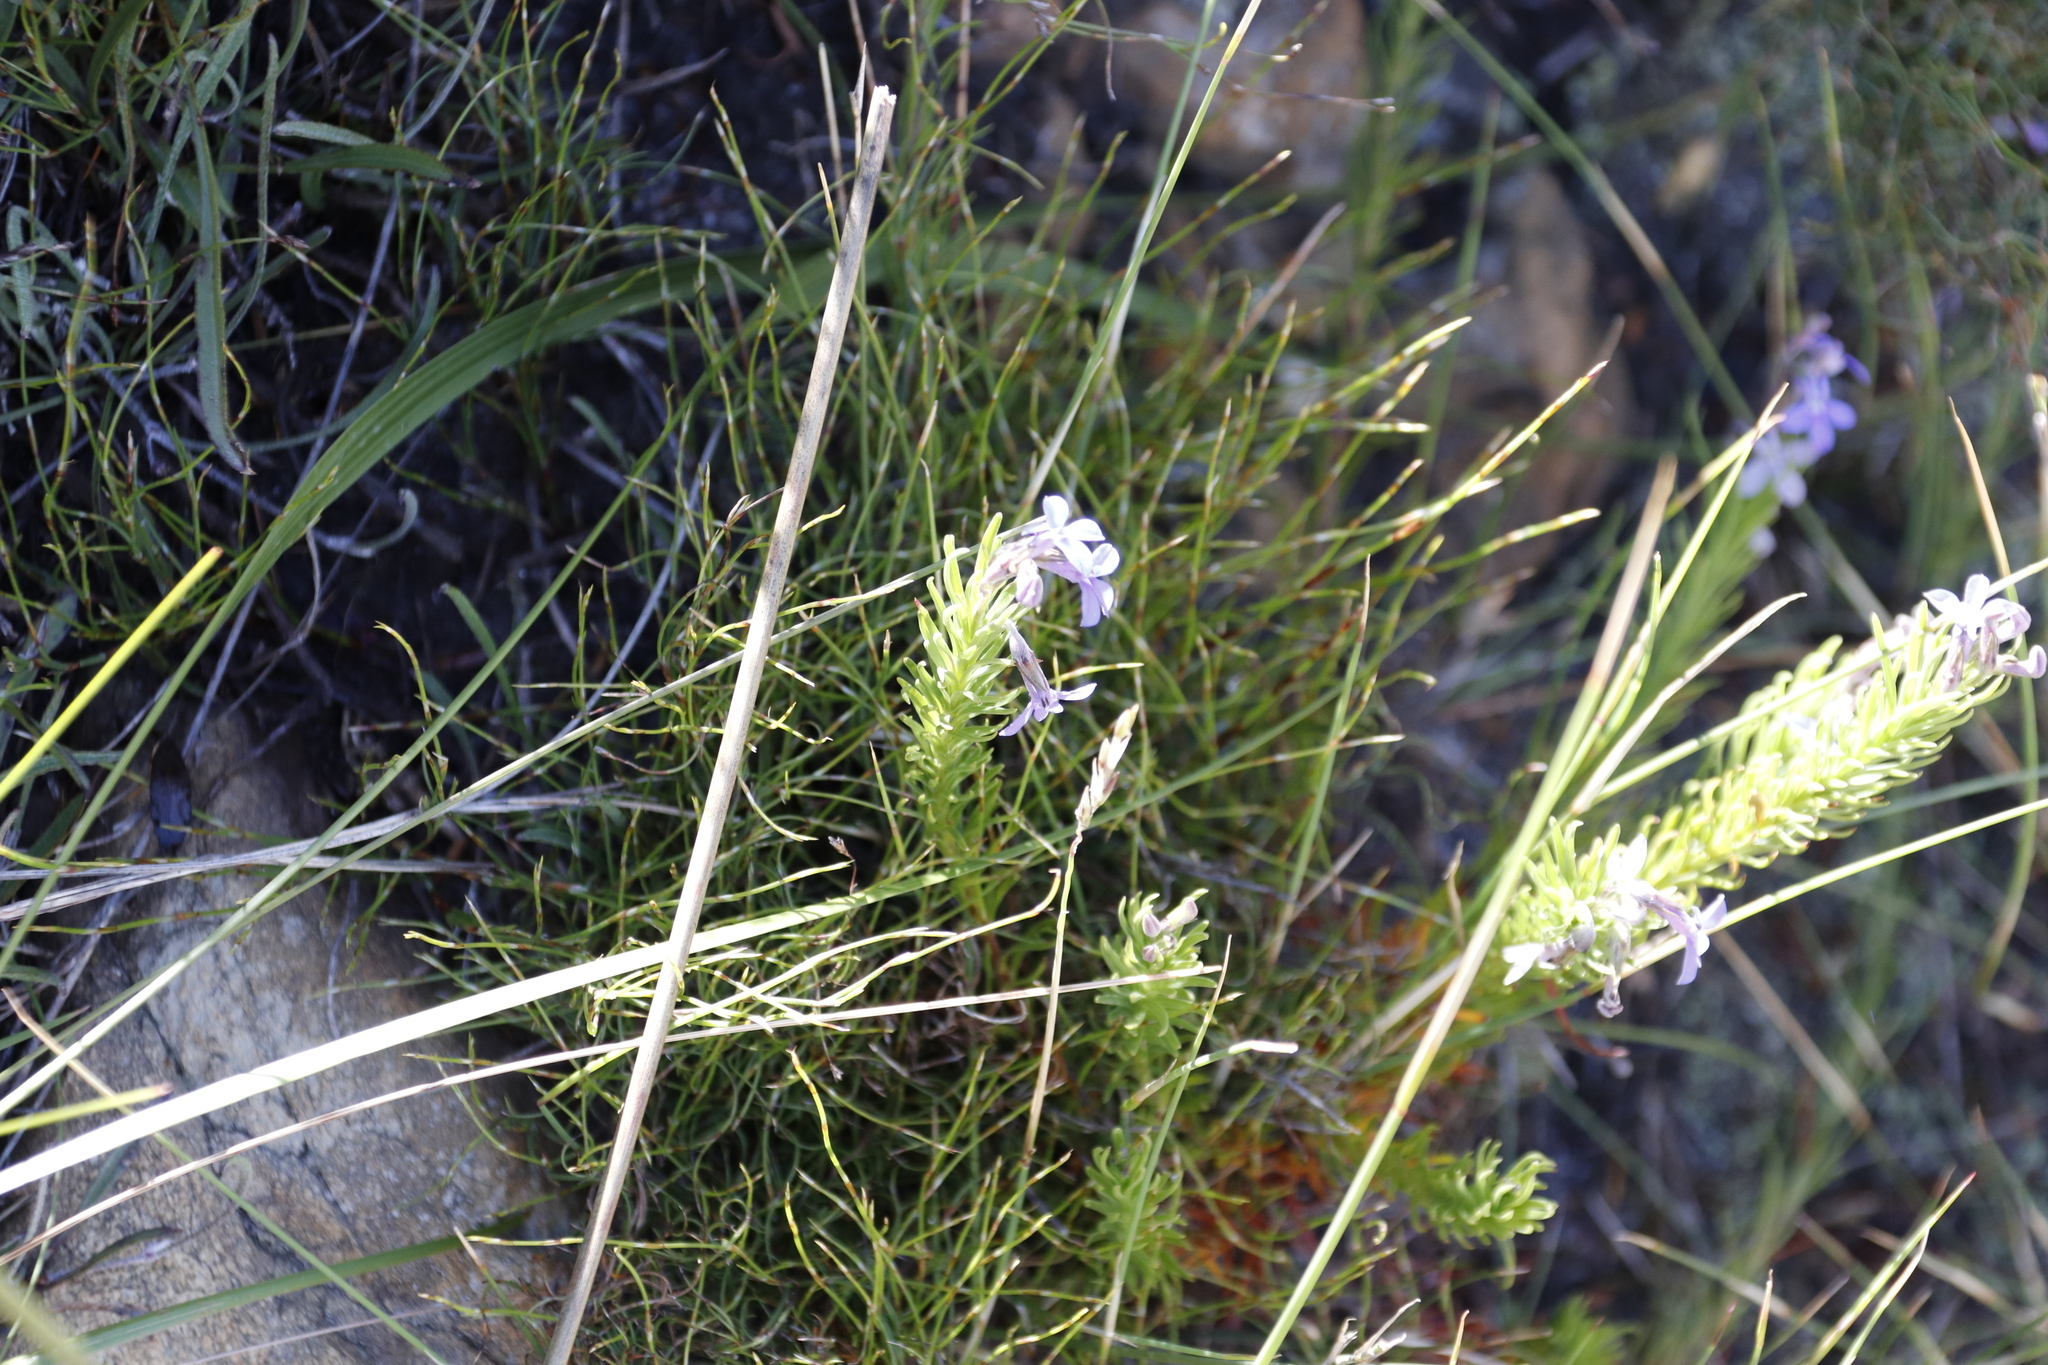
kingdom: Plantae
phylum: Tracheophyta
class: Magnoliopsida
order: Asterales
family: Campanulaceae
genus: Lobelia
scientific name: Lobelia pinifolia
